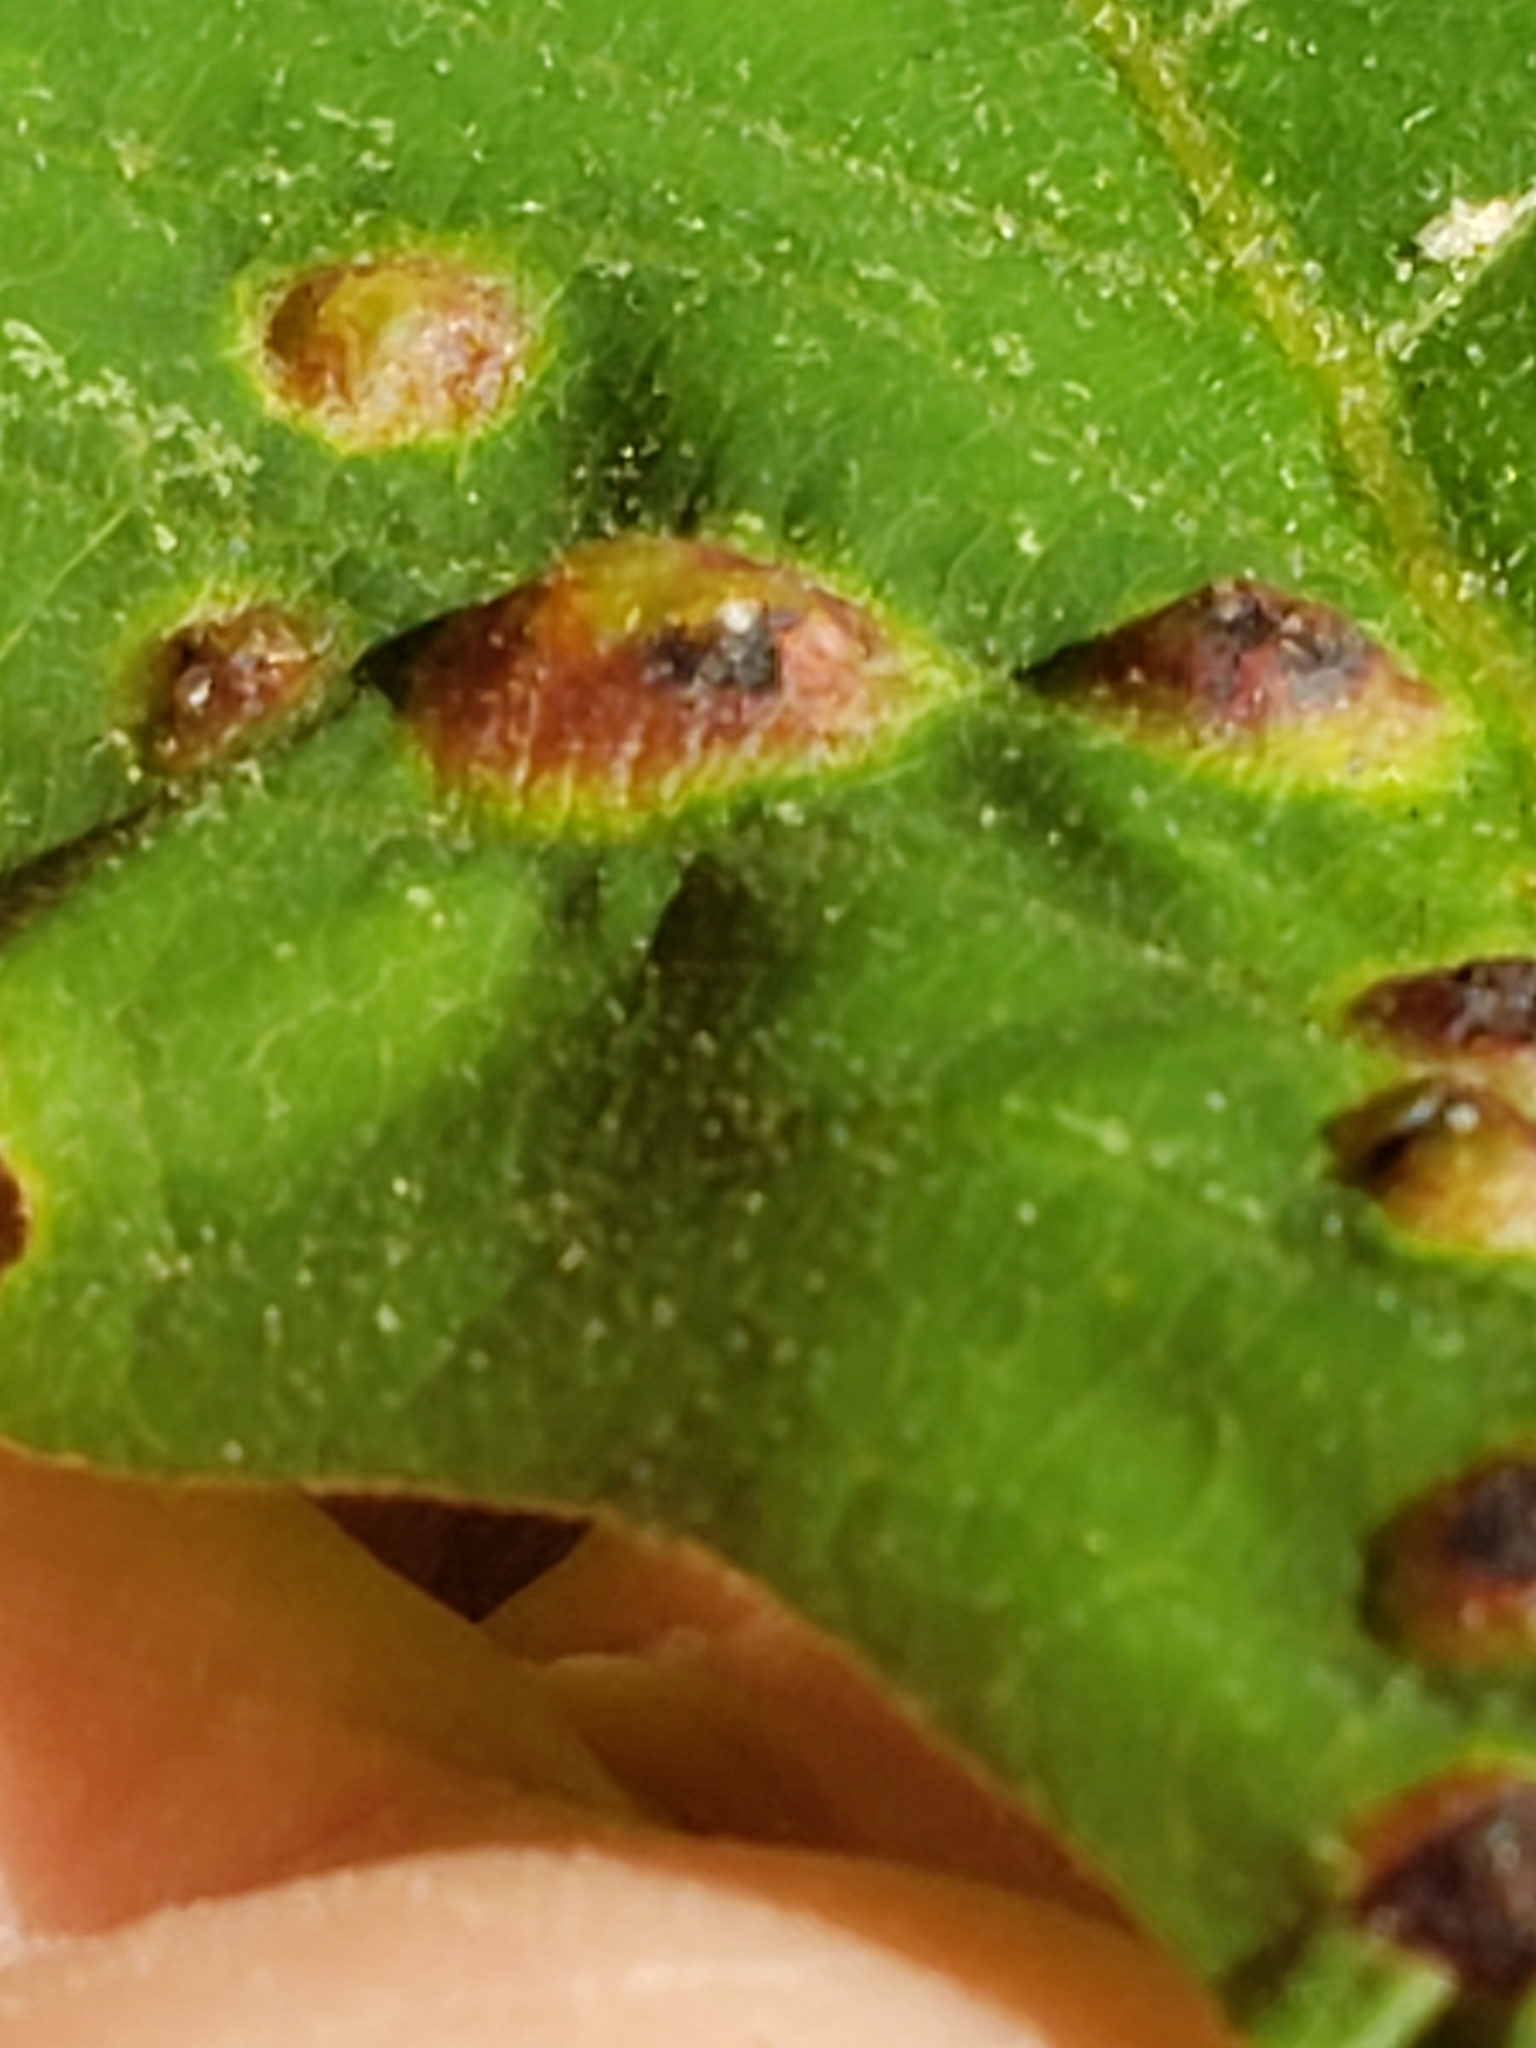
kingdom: Animalia
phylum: Arthropoda
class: Insecta
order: Hymenoptera
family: Cynipidae
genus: Callirhytis
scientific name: Callirhytis
